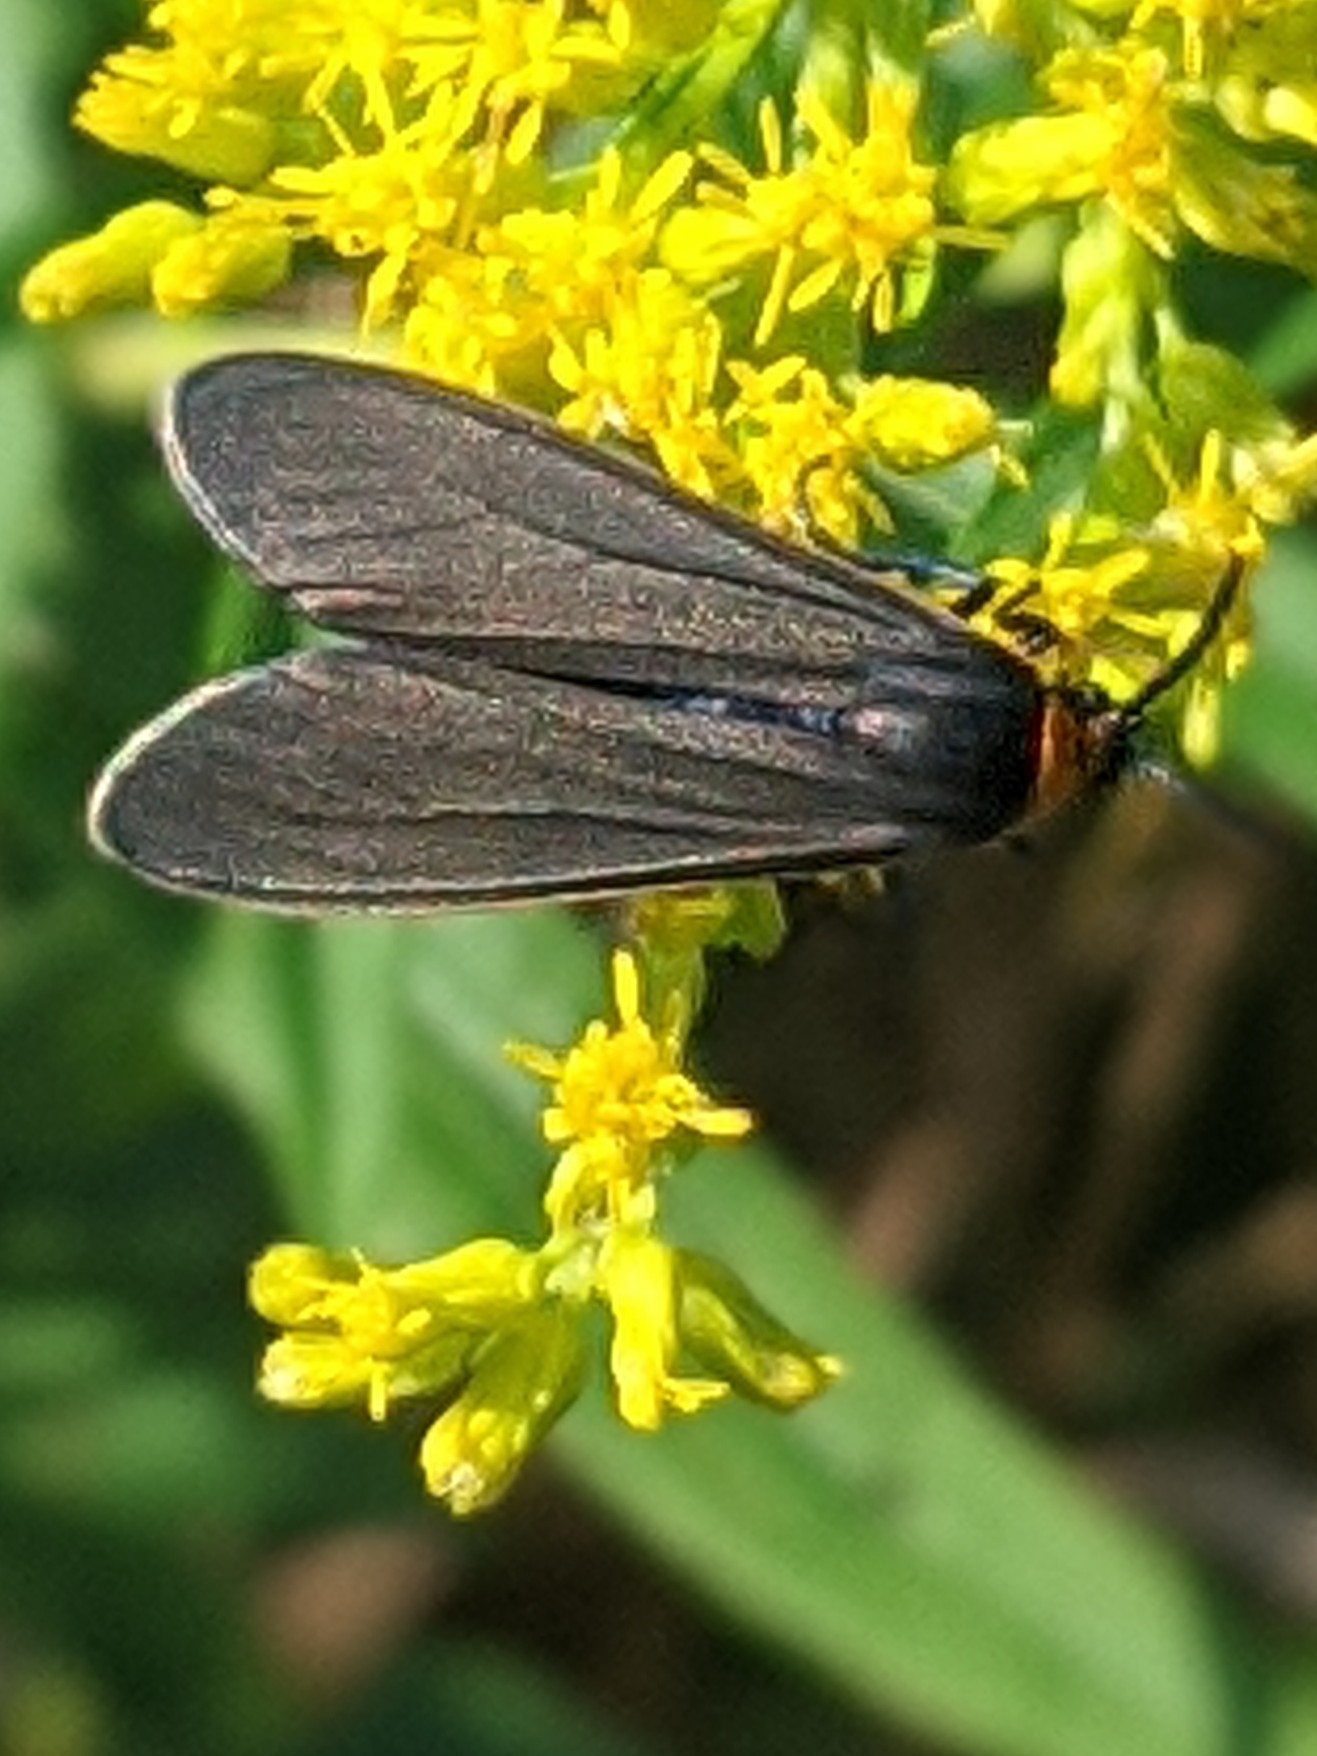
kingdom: Animalia
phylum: Arthropoda
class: Insecta
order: Lepidoptera
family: Erebidae
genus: Cisseps
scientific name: Cisseps fulvicollis
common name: Yellow-collared scape moth
